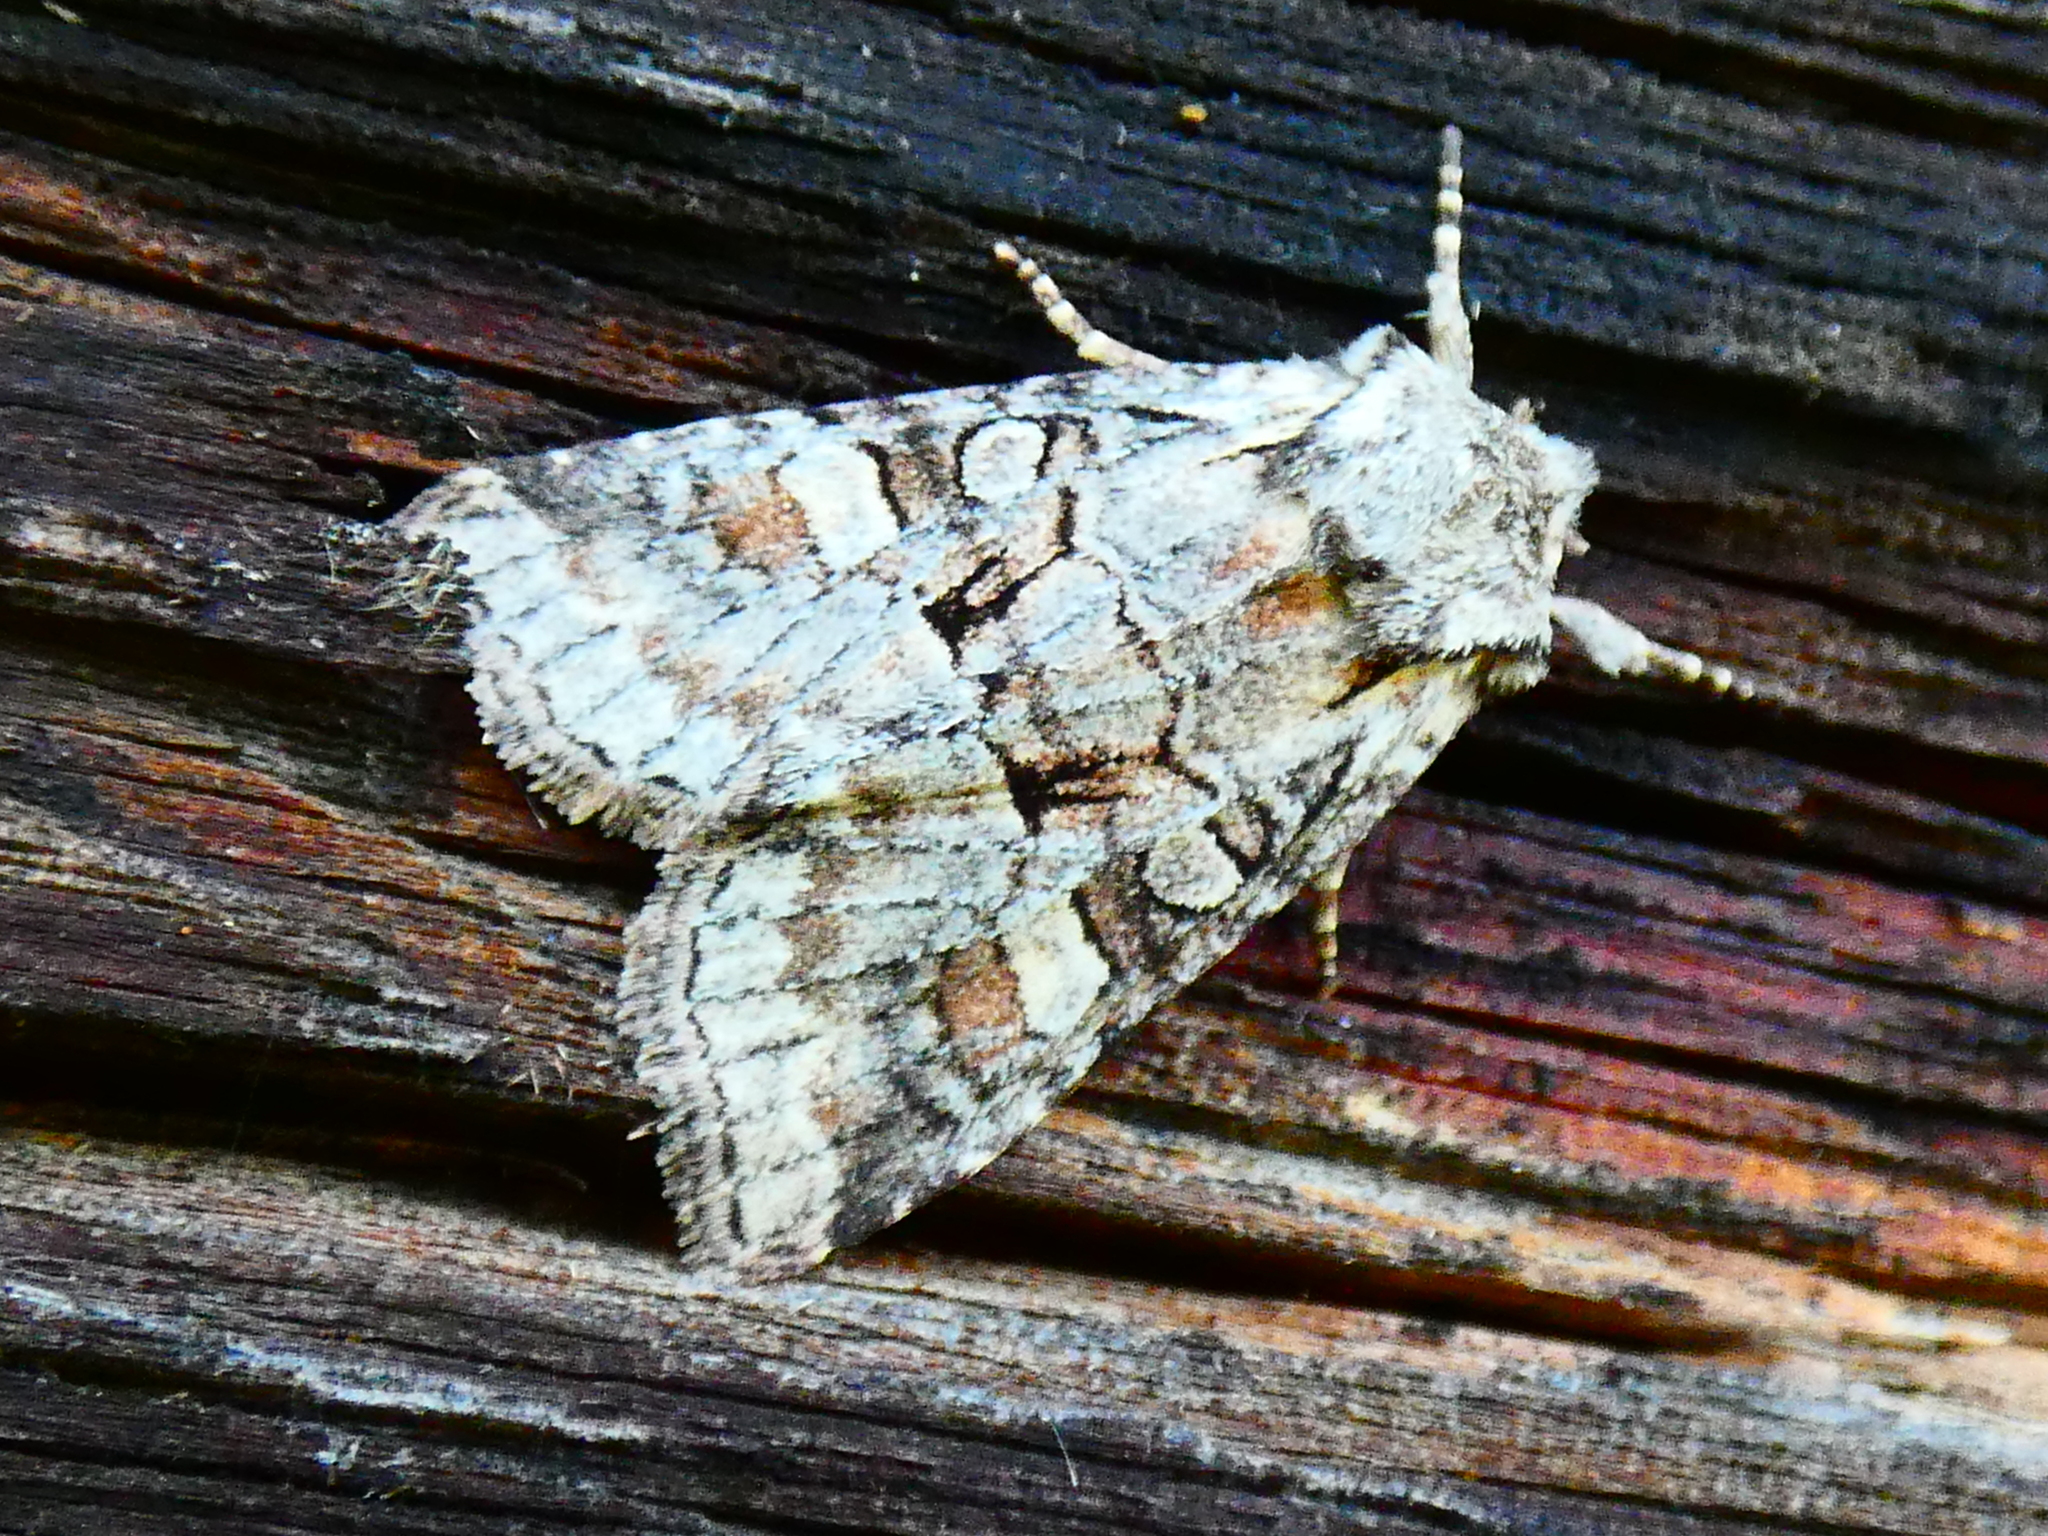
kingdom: Animalia
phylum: Arthropoda
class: Insecta
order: Lepidoptera
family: Noctuidae
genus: Brachylomia
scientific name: Brachylomia viminalis
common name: Minor shoulder-knot
